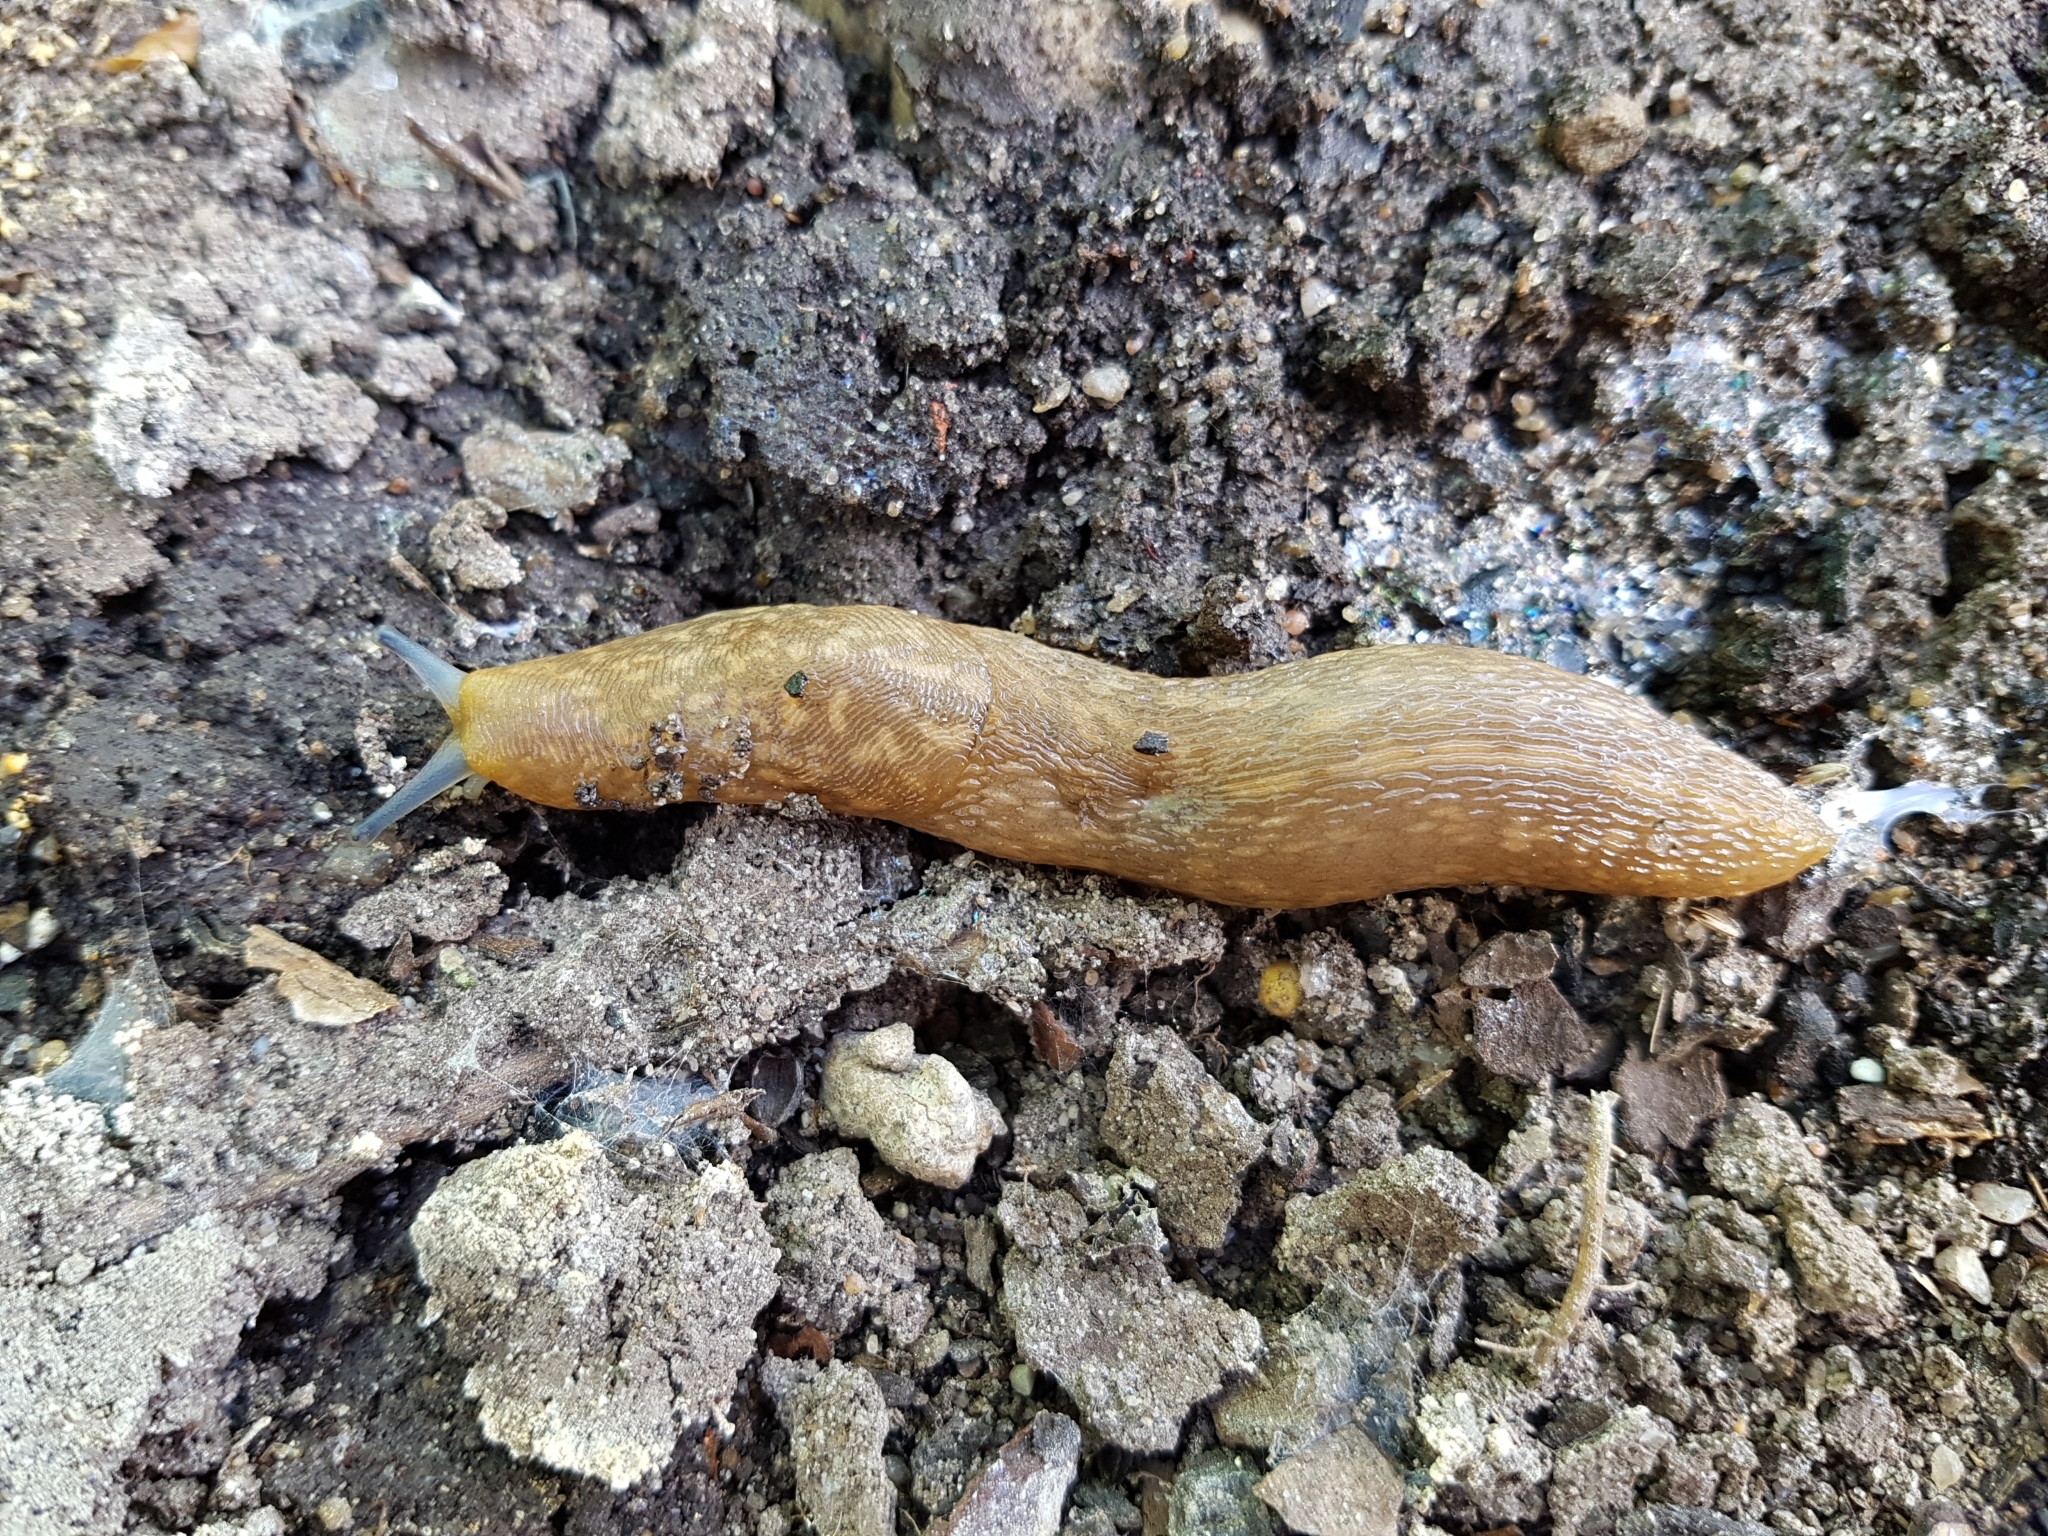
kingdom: Animalia
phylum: Mollusca
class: Gastropoda
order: Stylommatophora
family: Limacidae
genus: Limacus
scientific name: Limacus flavus
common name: Yellow gardenslug
